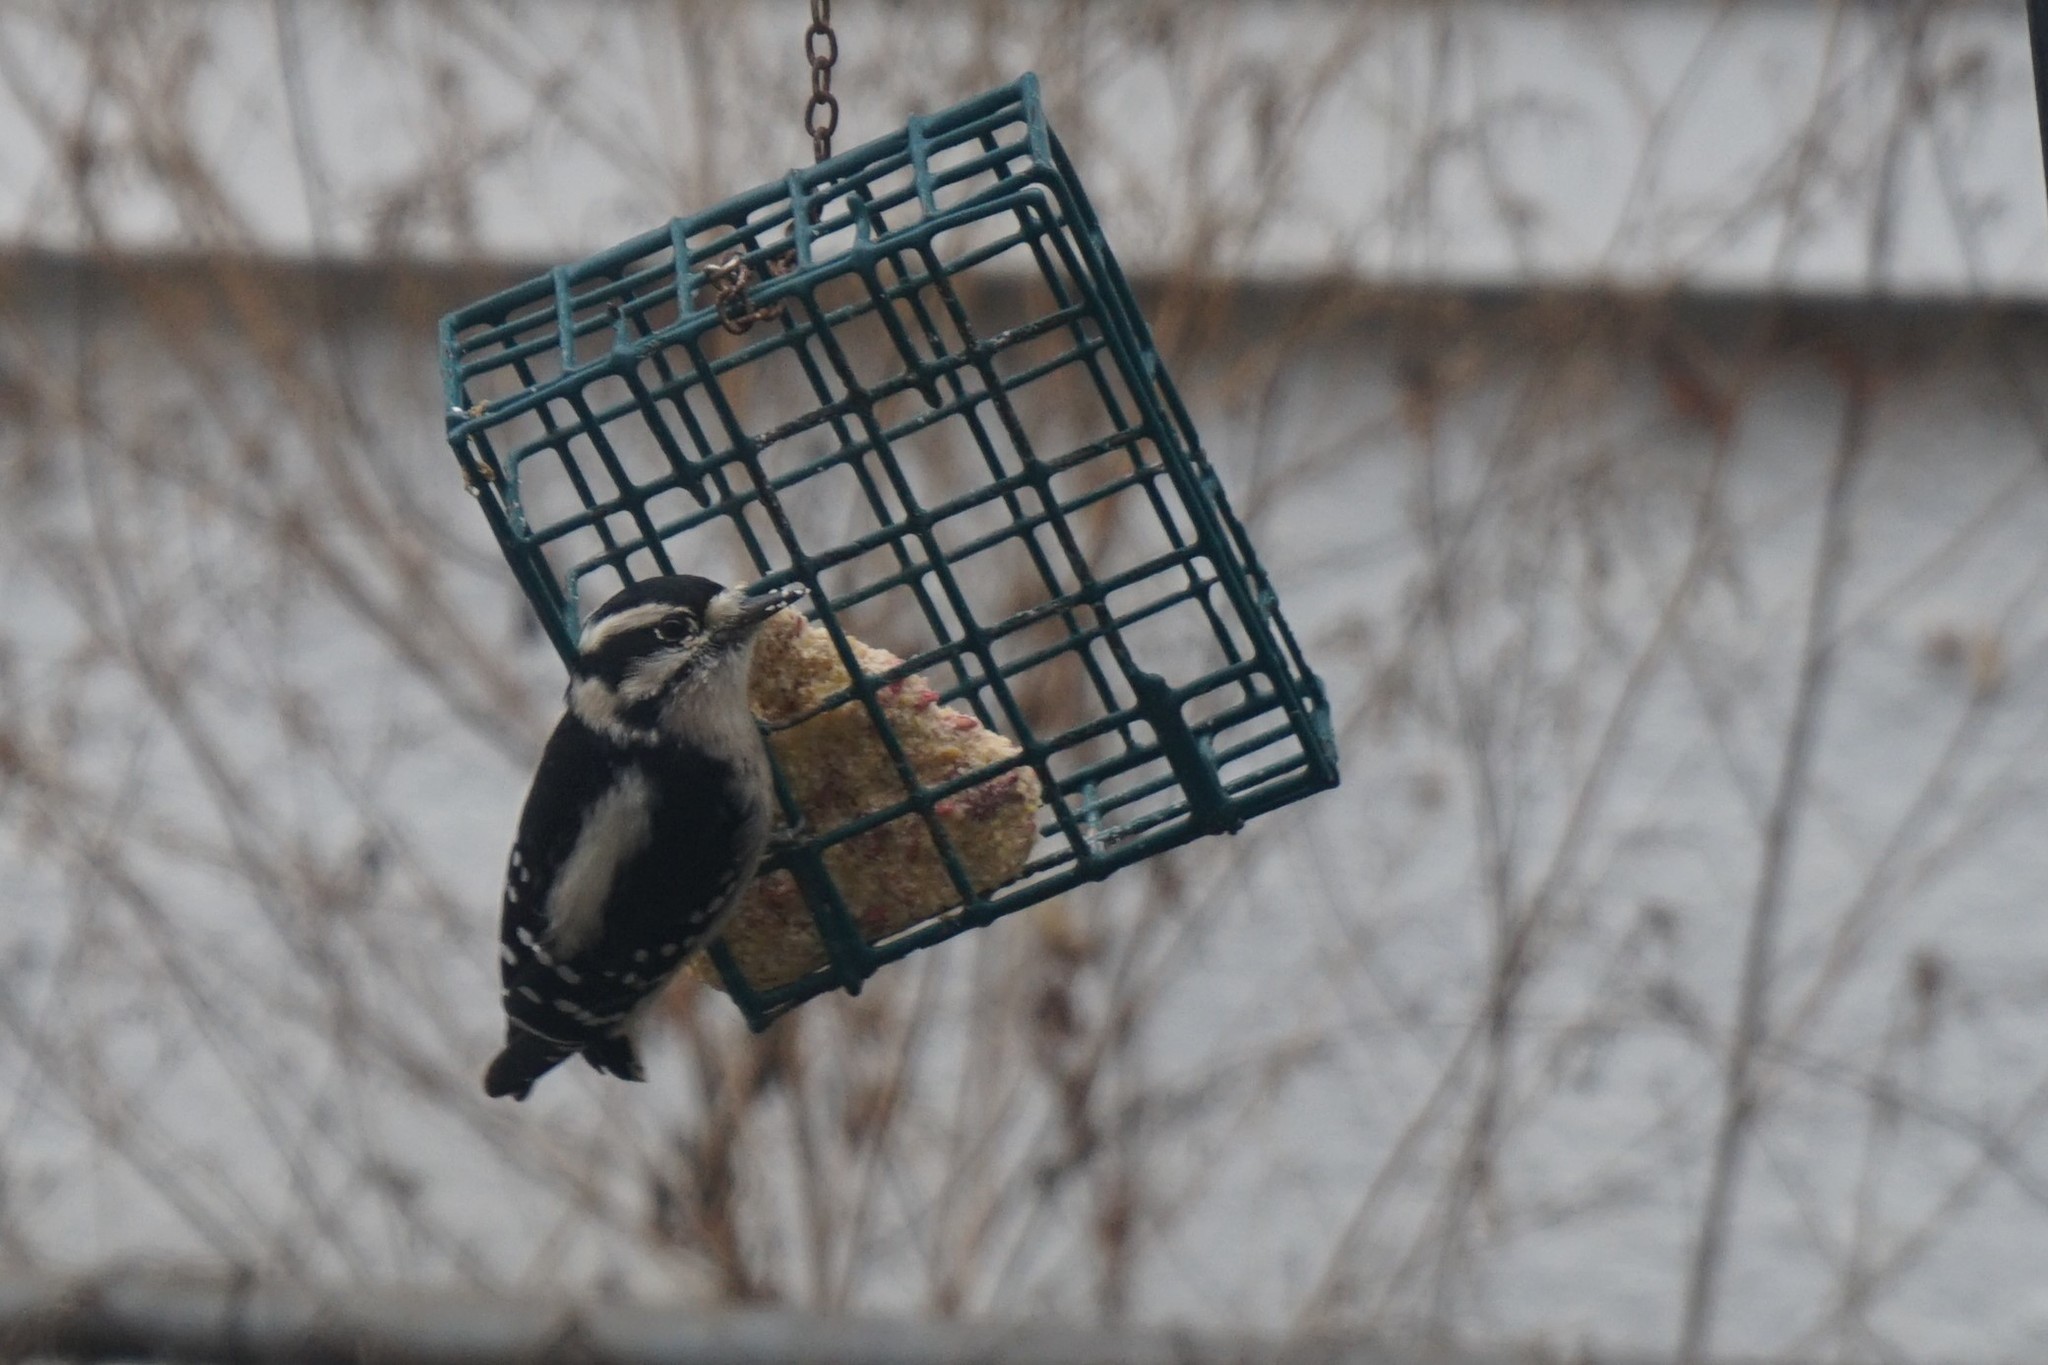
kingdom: Animalia
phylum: Chordata
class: Aves
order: Piciformes
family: Picidae
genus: Dryobates
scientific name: Dryobates pubescens
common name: Downy woodpecker
